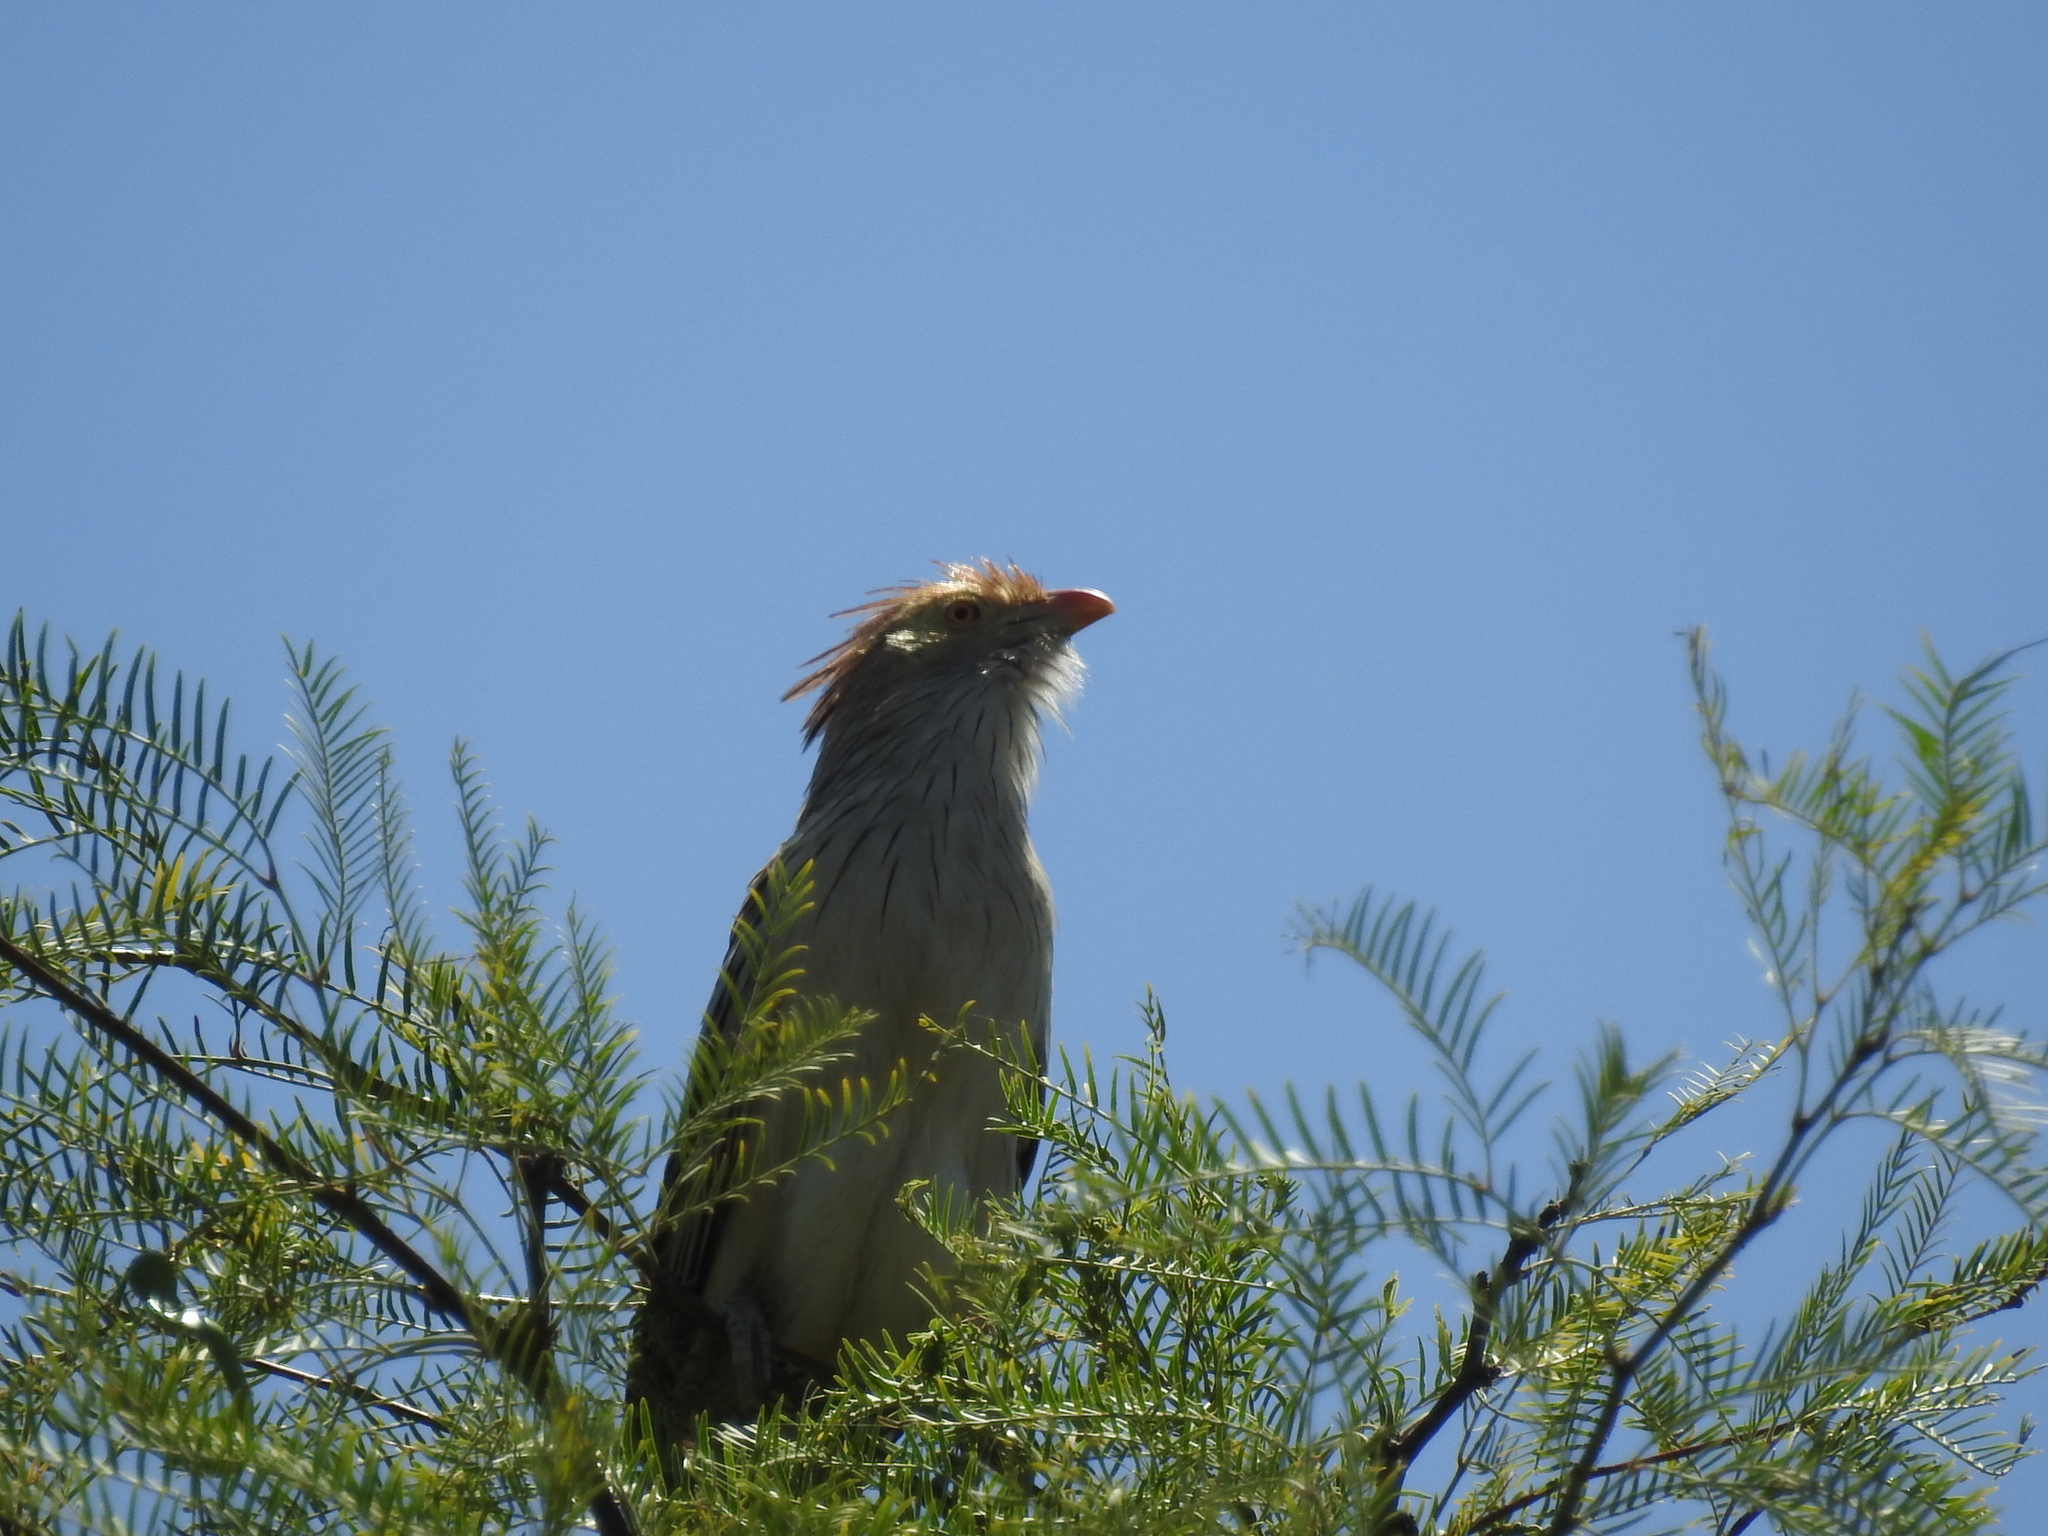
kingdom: Animalia
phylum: Chordata
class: Aves
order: Cuculiformes
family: Cuculidae
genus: Guira
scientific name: Guira guira
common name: Guira cuckoo
